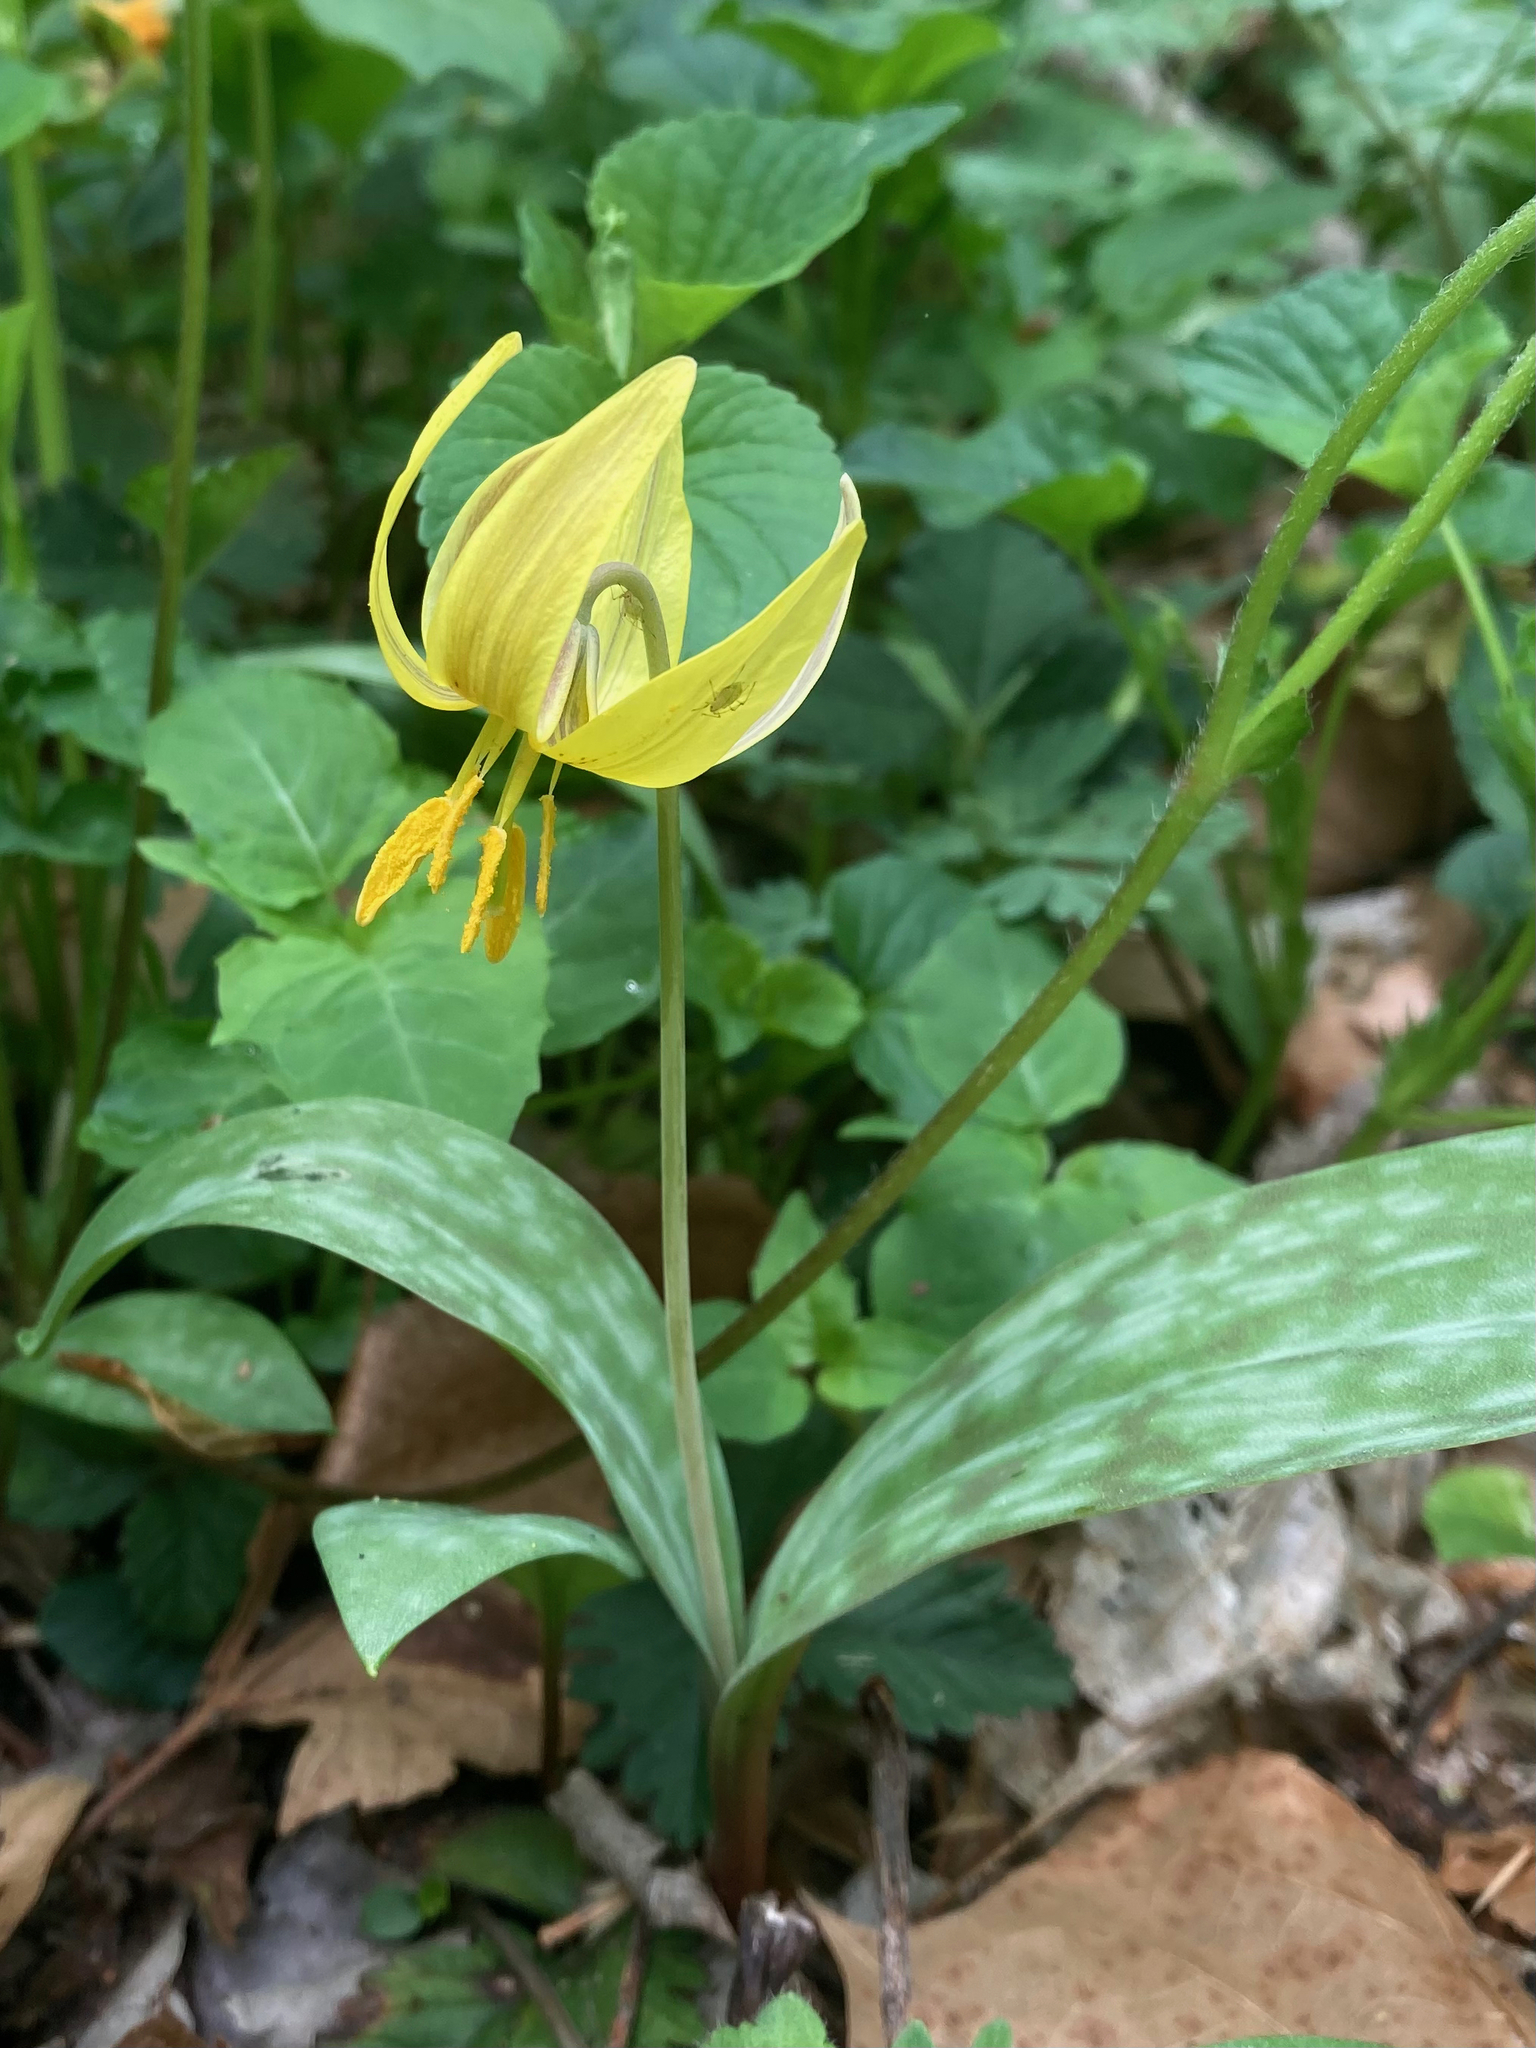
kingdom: Plantae
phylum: Tracheophyta
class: Liliopsida
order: Liliales
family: Liliaceae
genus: Erythronium
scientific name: Erythronium americanum
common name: Yellow adder's-tongue
